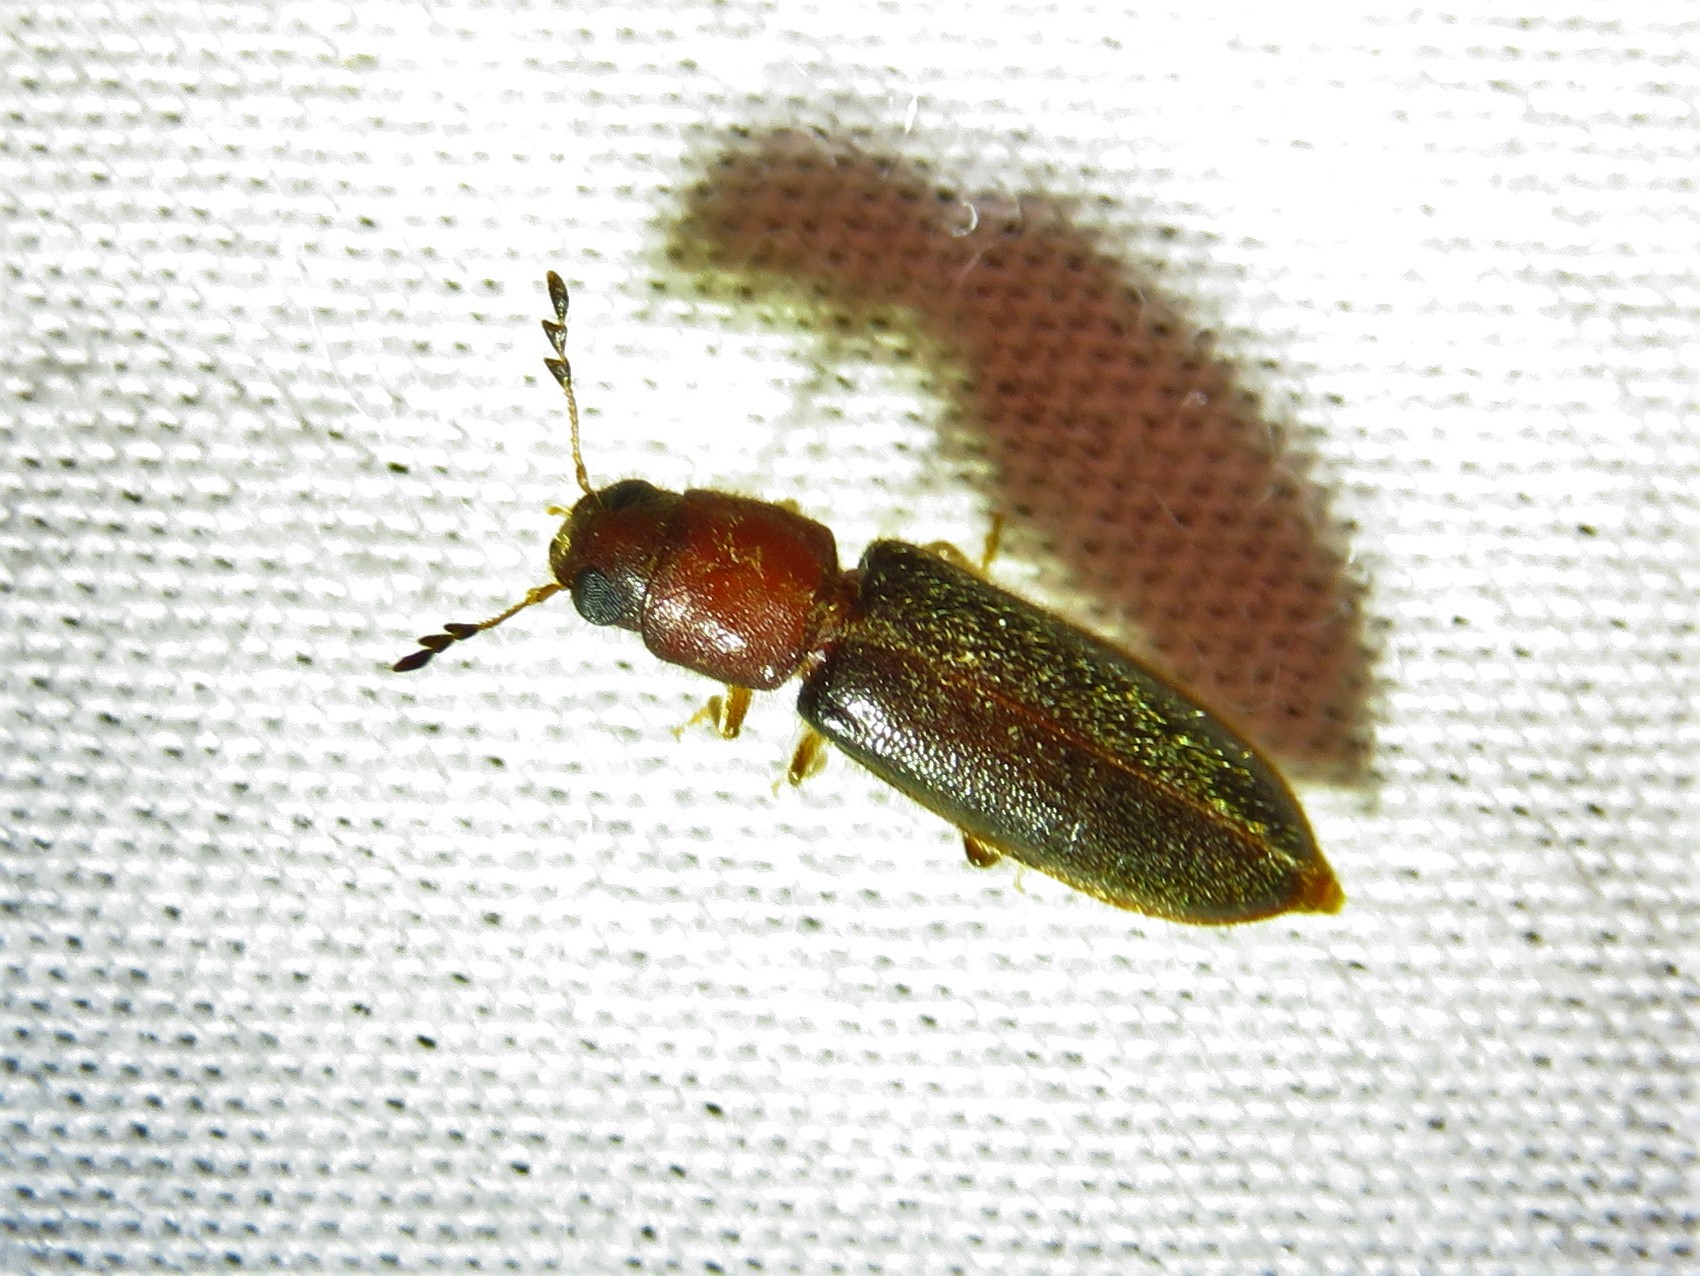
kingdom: Animalia
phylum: Arthropoda
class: Insecta
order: Coleoptera
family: Cleridae
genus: Neorthopleura
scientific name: Neorthopleura texana
